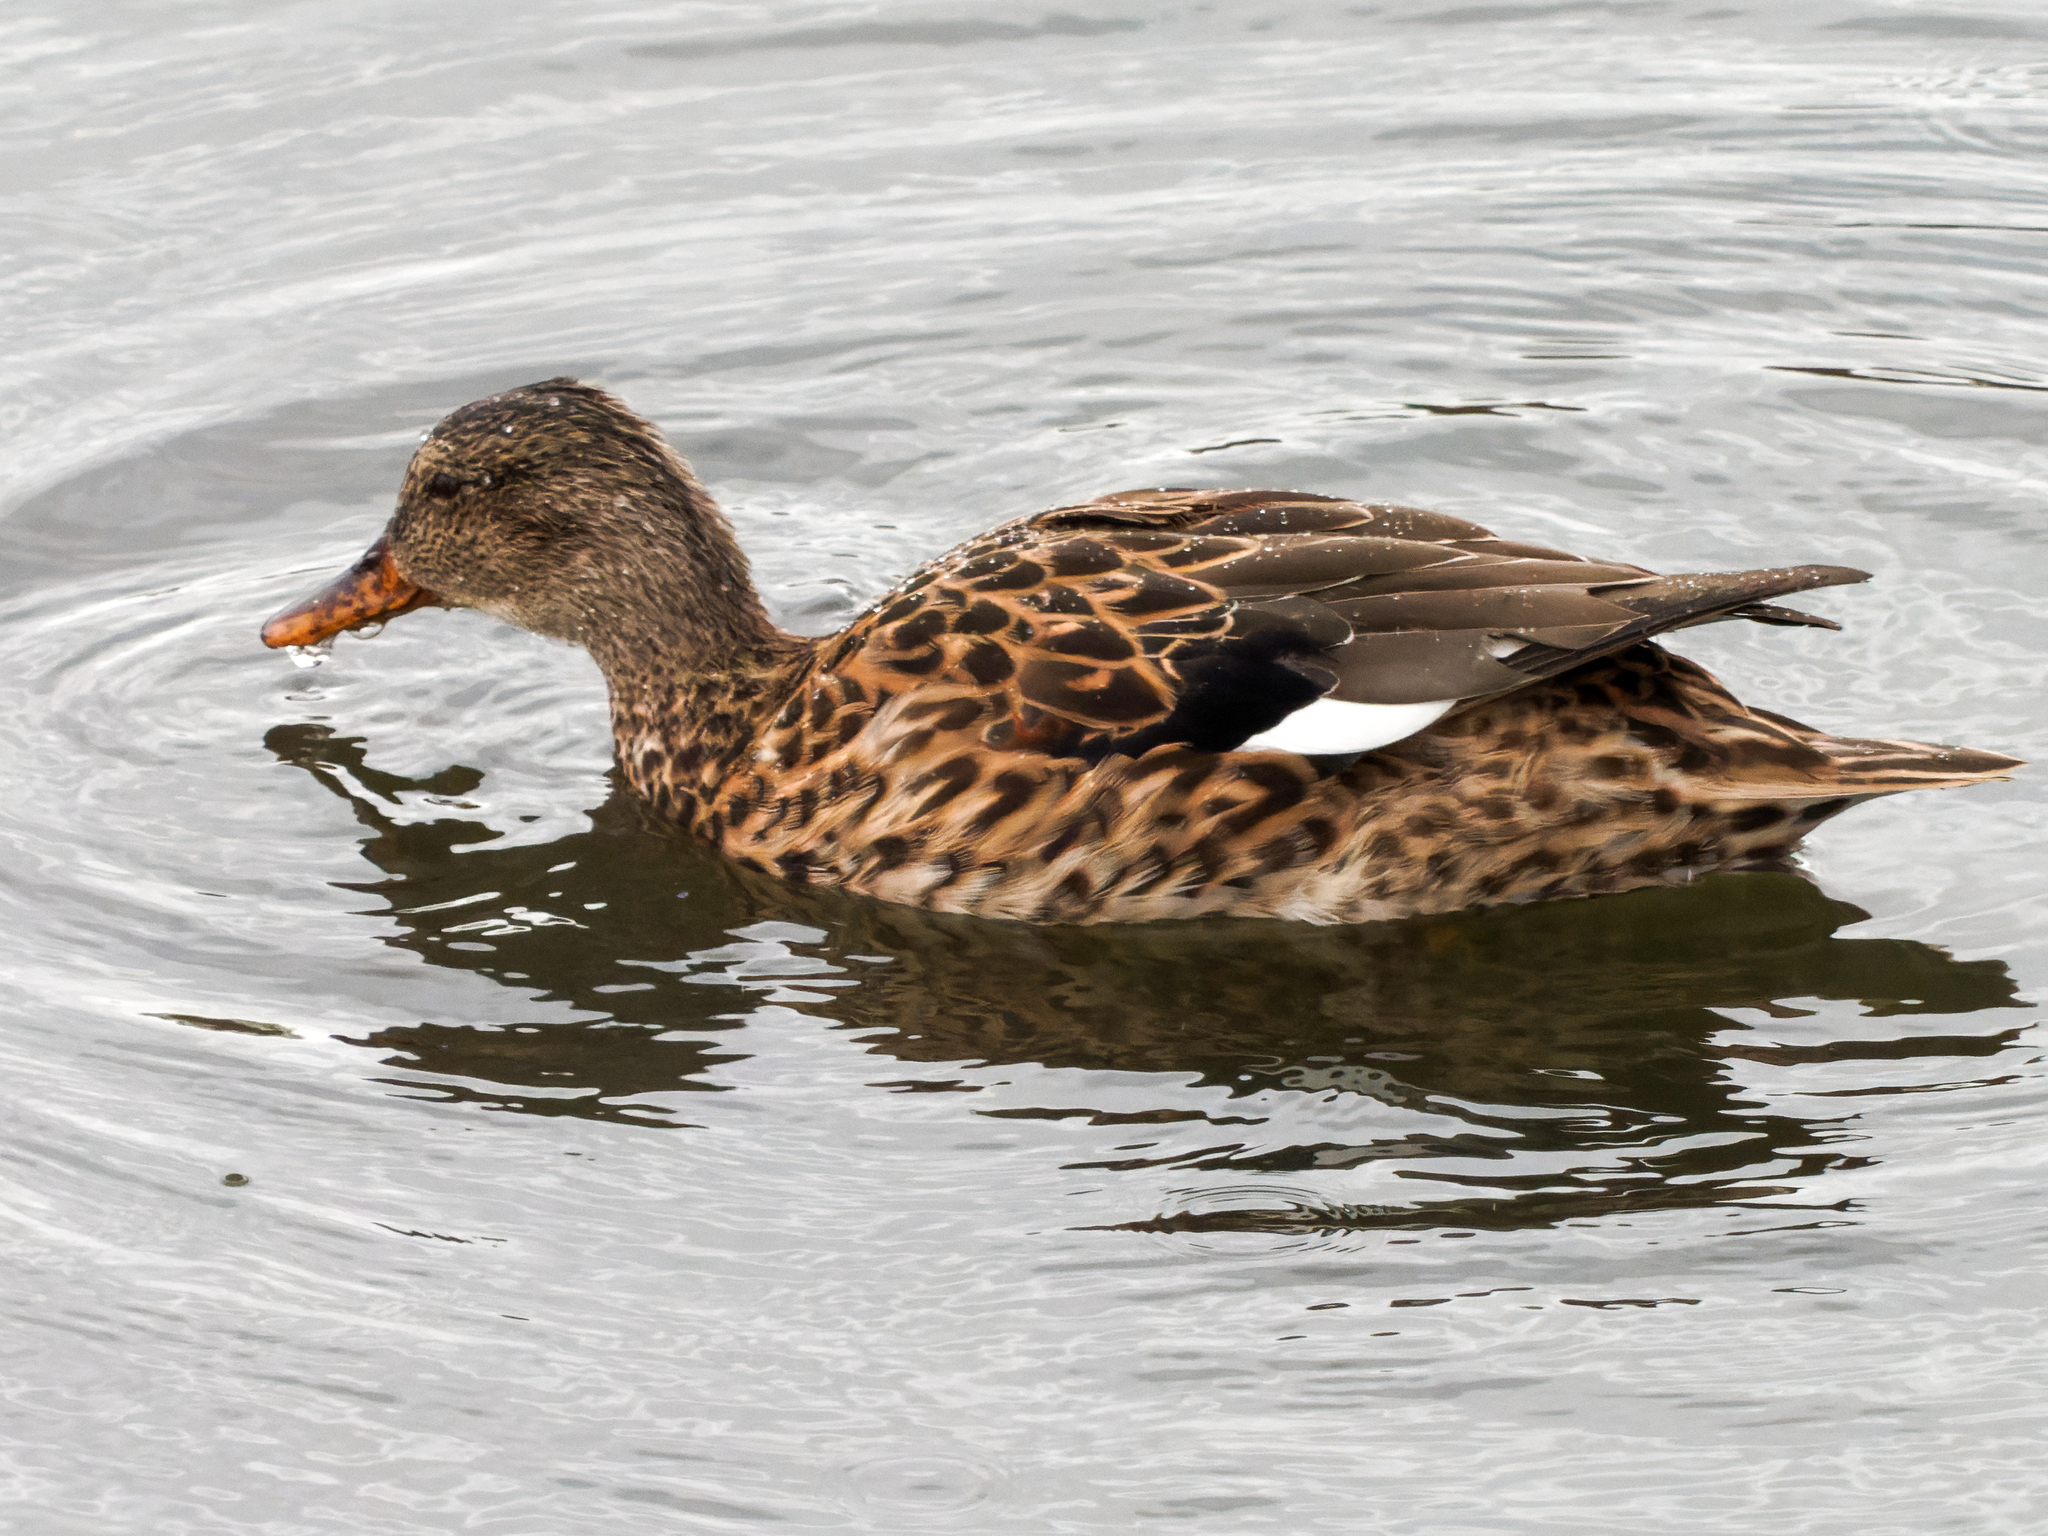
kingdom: Animalia
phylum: Chordata
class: Aves
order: Anseriformes
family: Anatidae
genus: Mareca
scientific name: Mareca strepera
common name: Gadwall
